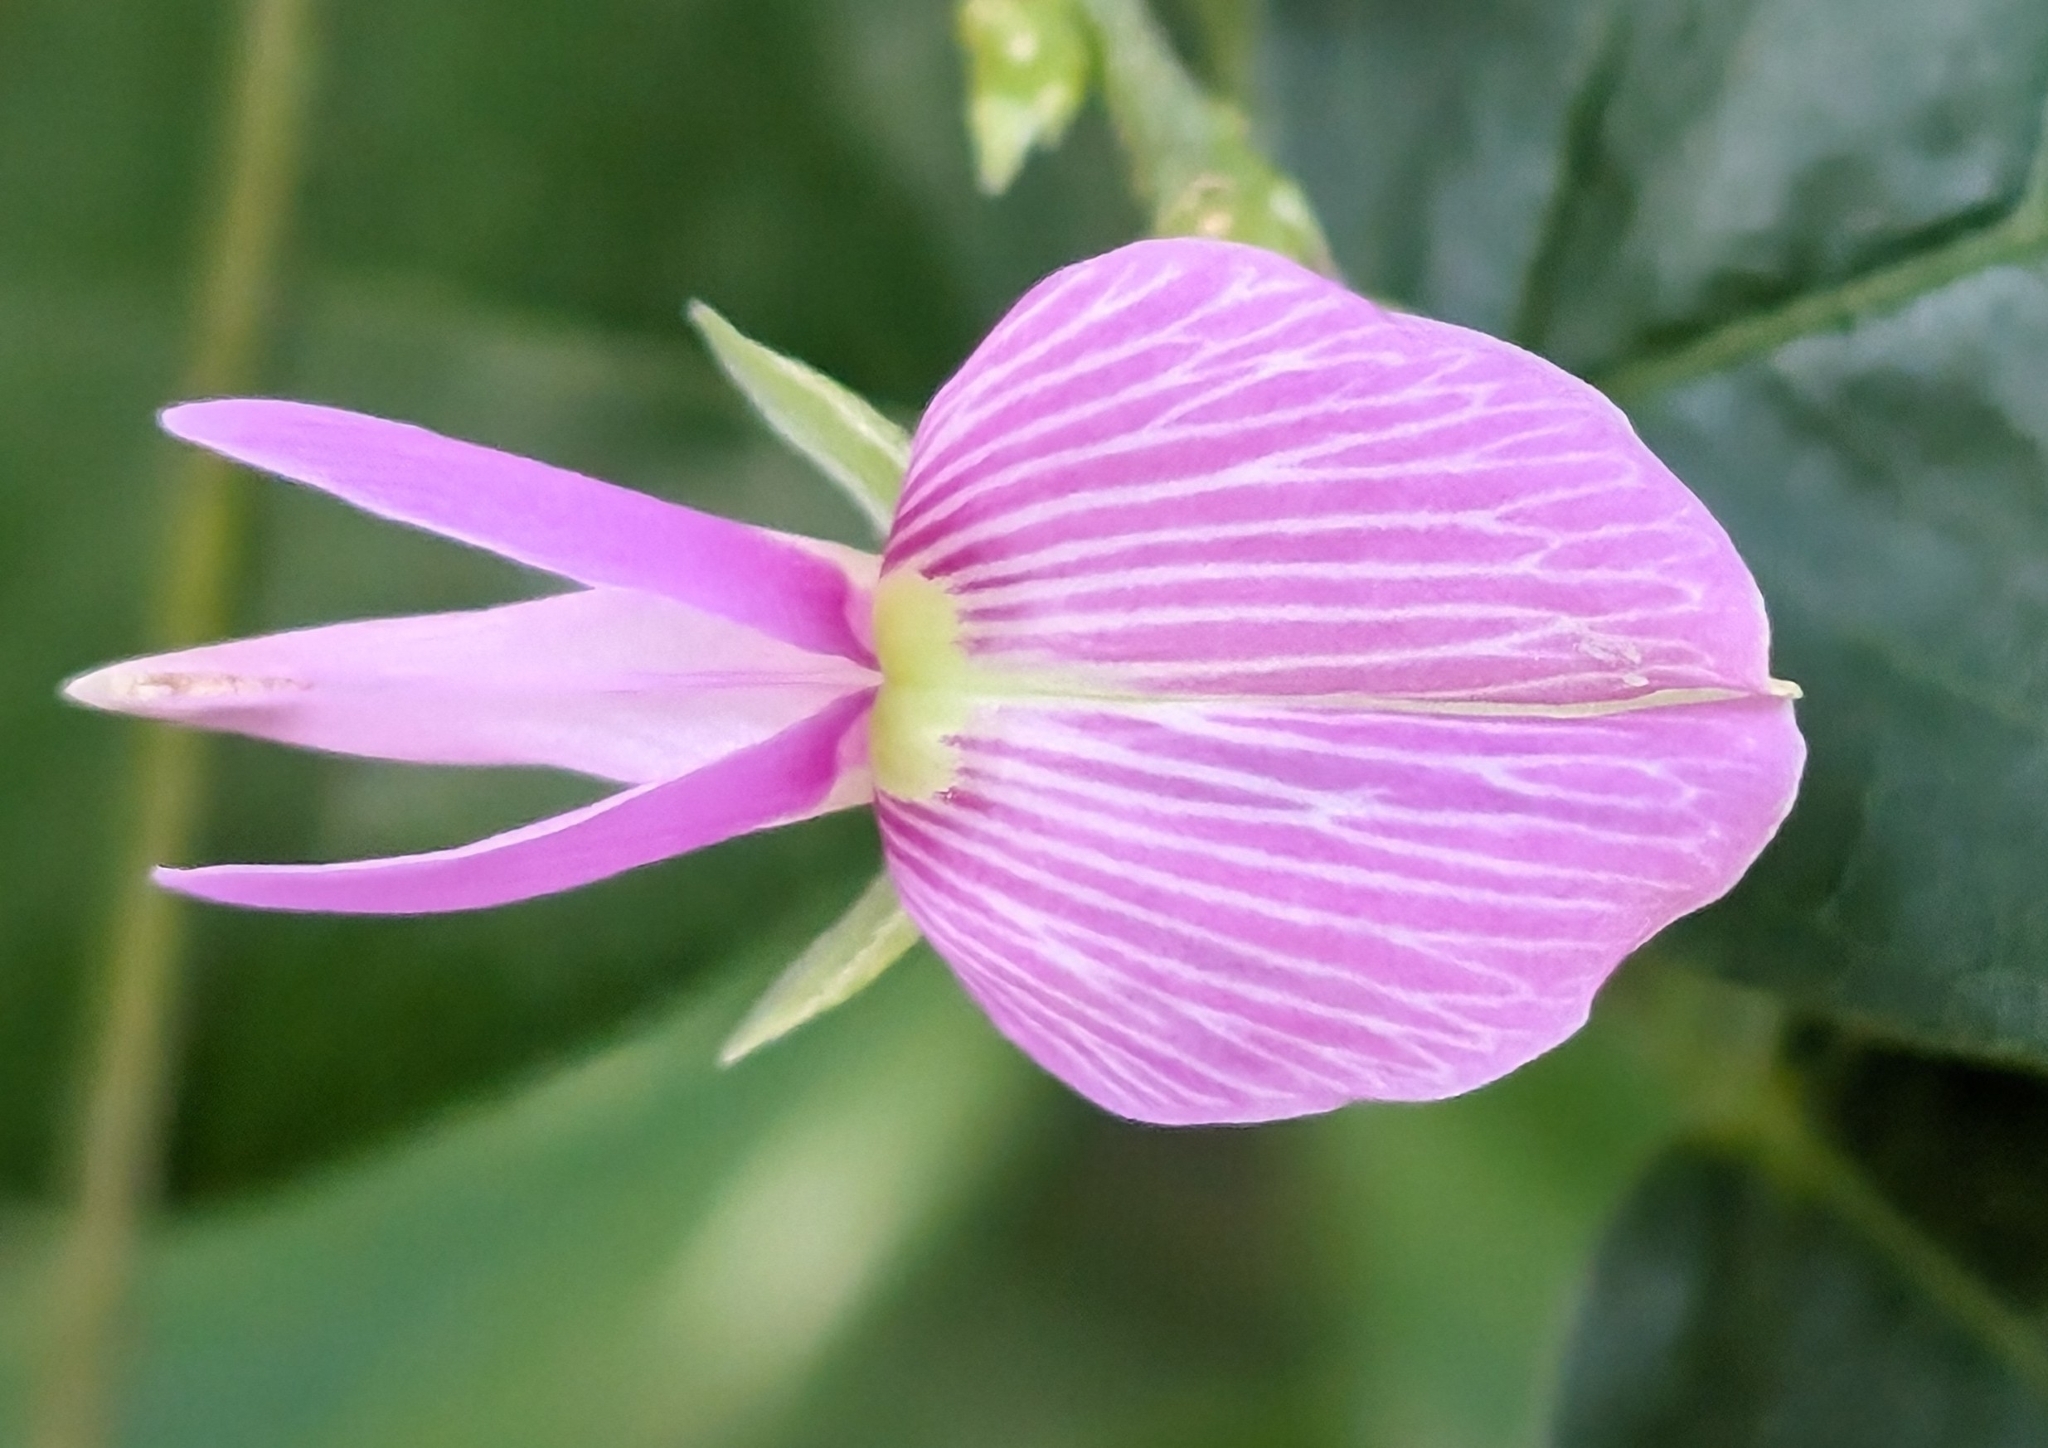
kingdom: Plantae
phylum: Tracheophyta
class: Magnoliopsida
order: Fabales
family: Fabaceae
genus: Galactia
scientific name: Galactia striata
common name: Florida hammock milkpea
